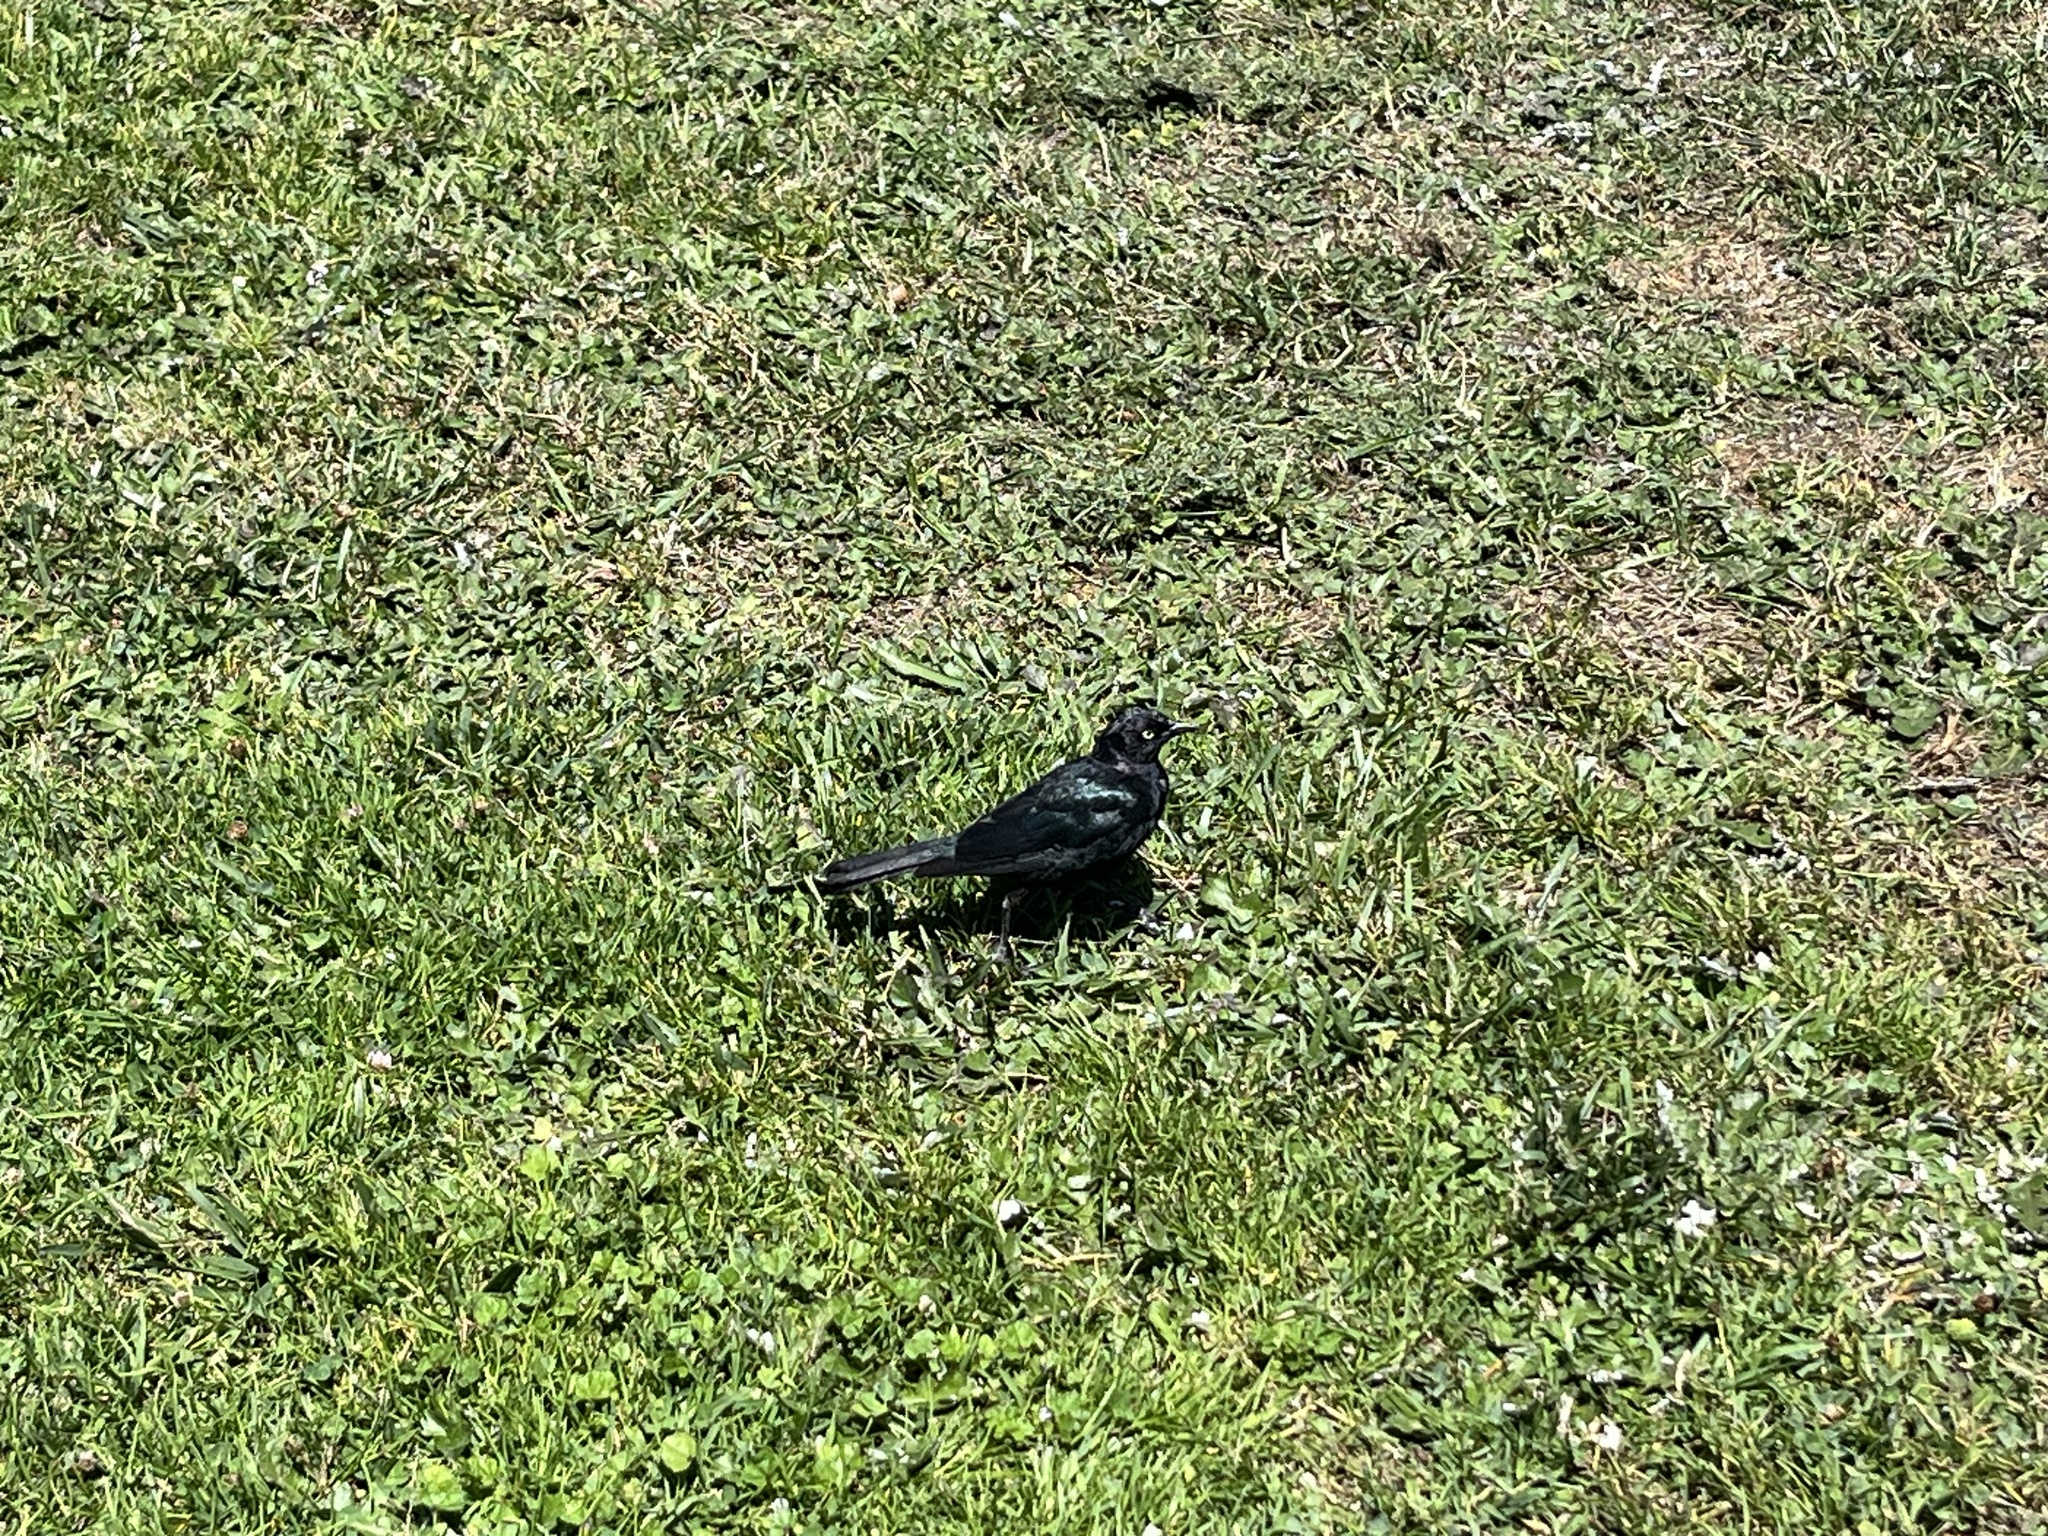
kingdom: Animalia
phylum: Chordata
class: Aves
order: Passeriformes
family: Icteridae
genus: Euphagus
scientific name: Euphagus cyanocephalus
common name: Brewer's blackbird
